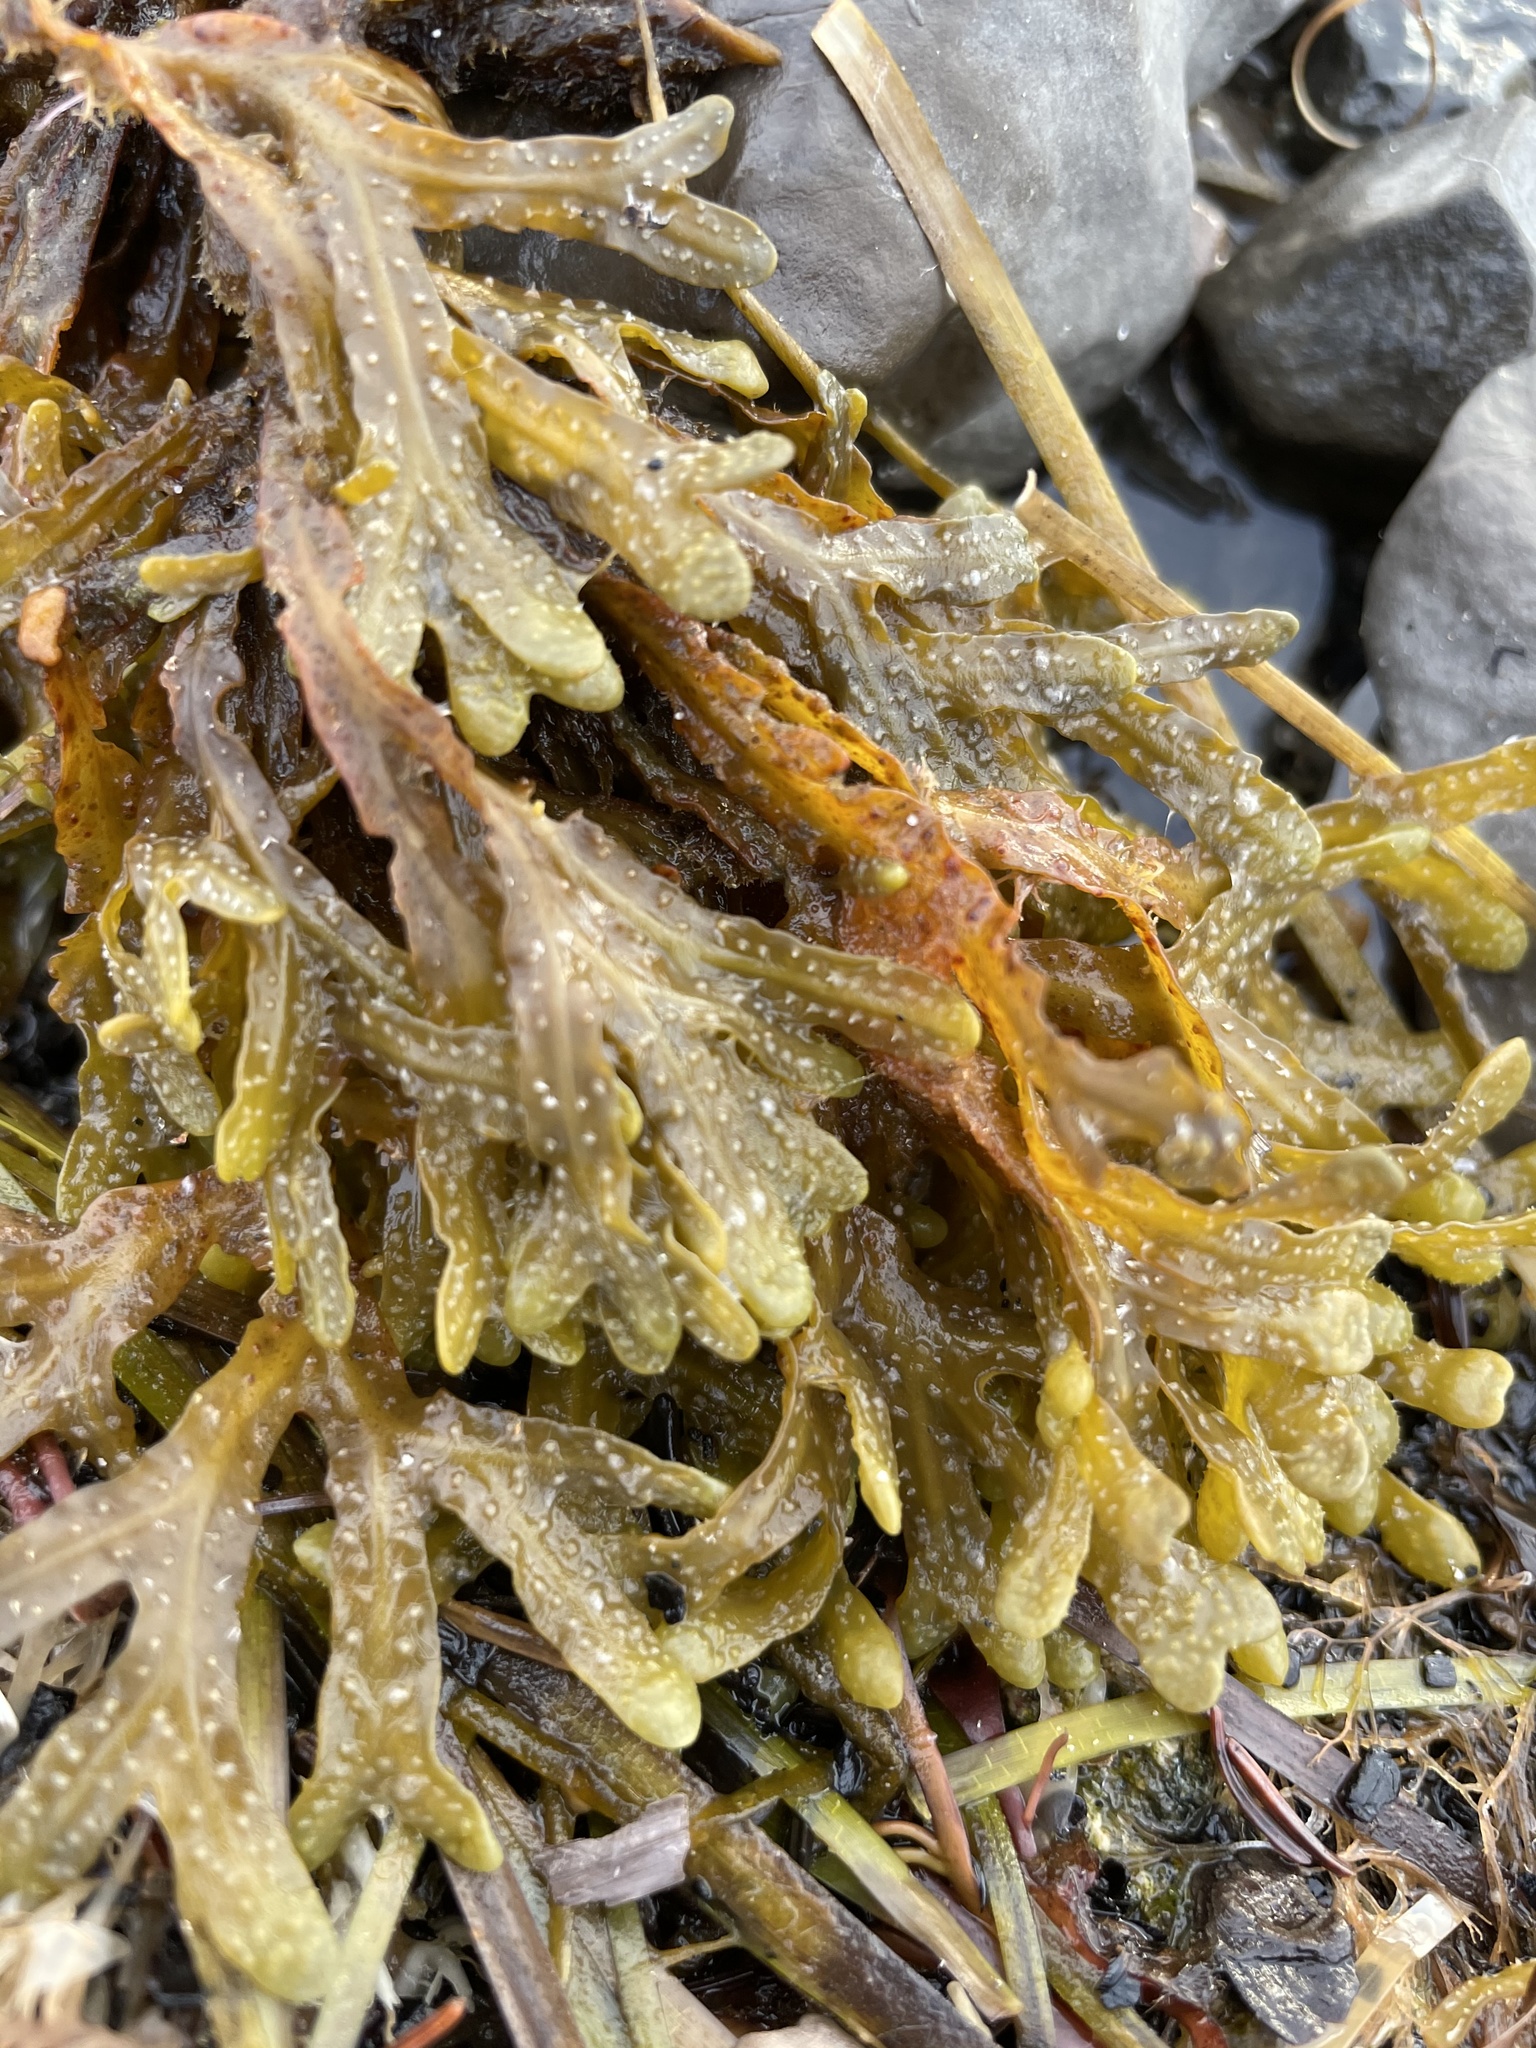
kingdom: Chromista
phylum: Ochrophyta
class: Phaeophyceae
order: Fucales
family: Fucaceae
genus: Fucus
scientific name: Fucus distichus
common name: Rockweed
